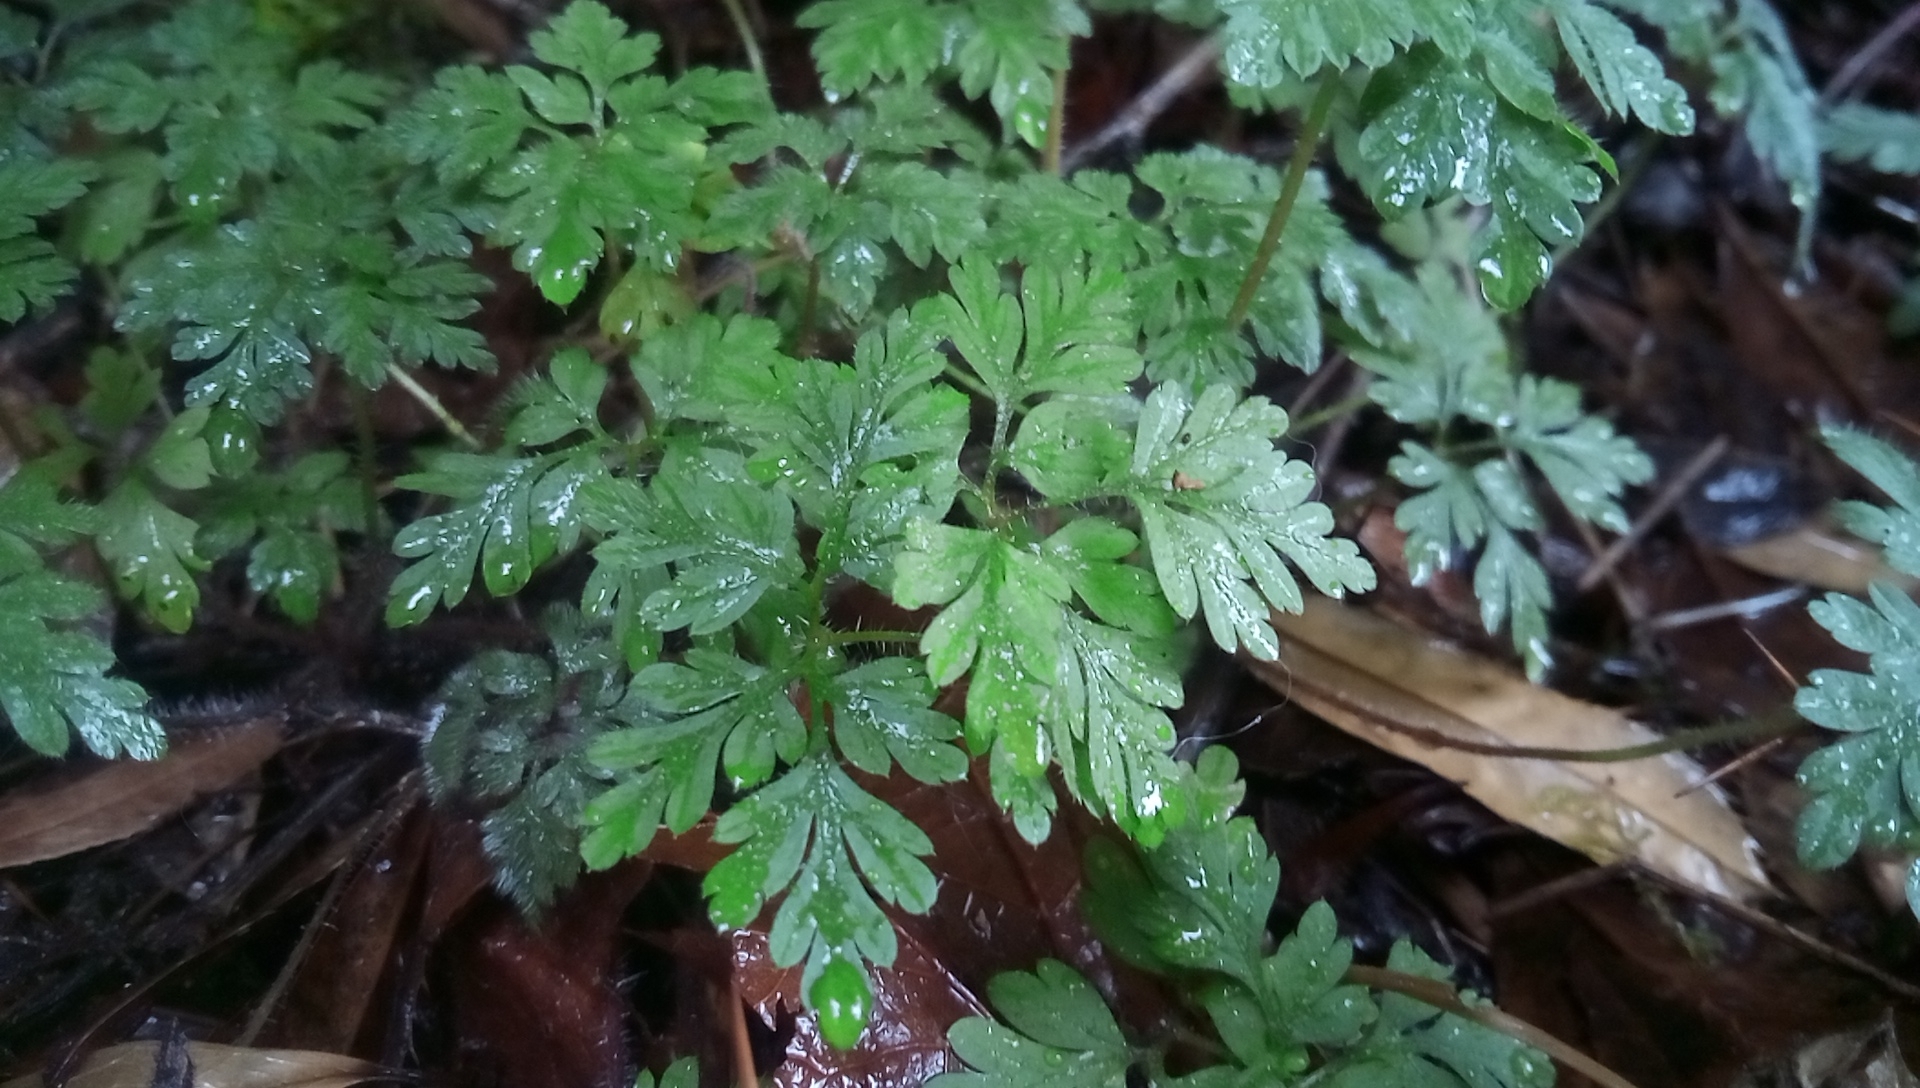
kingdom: Plantae
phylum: Tracheophyta
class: Magnoliopsida
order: Geraniales
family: Geraniaceae
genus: Geranium
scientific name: Geranium robertianum
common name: Herb-robert
